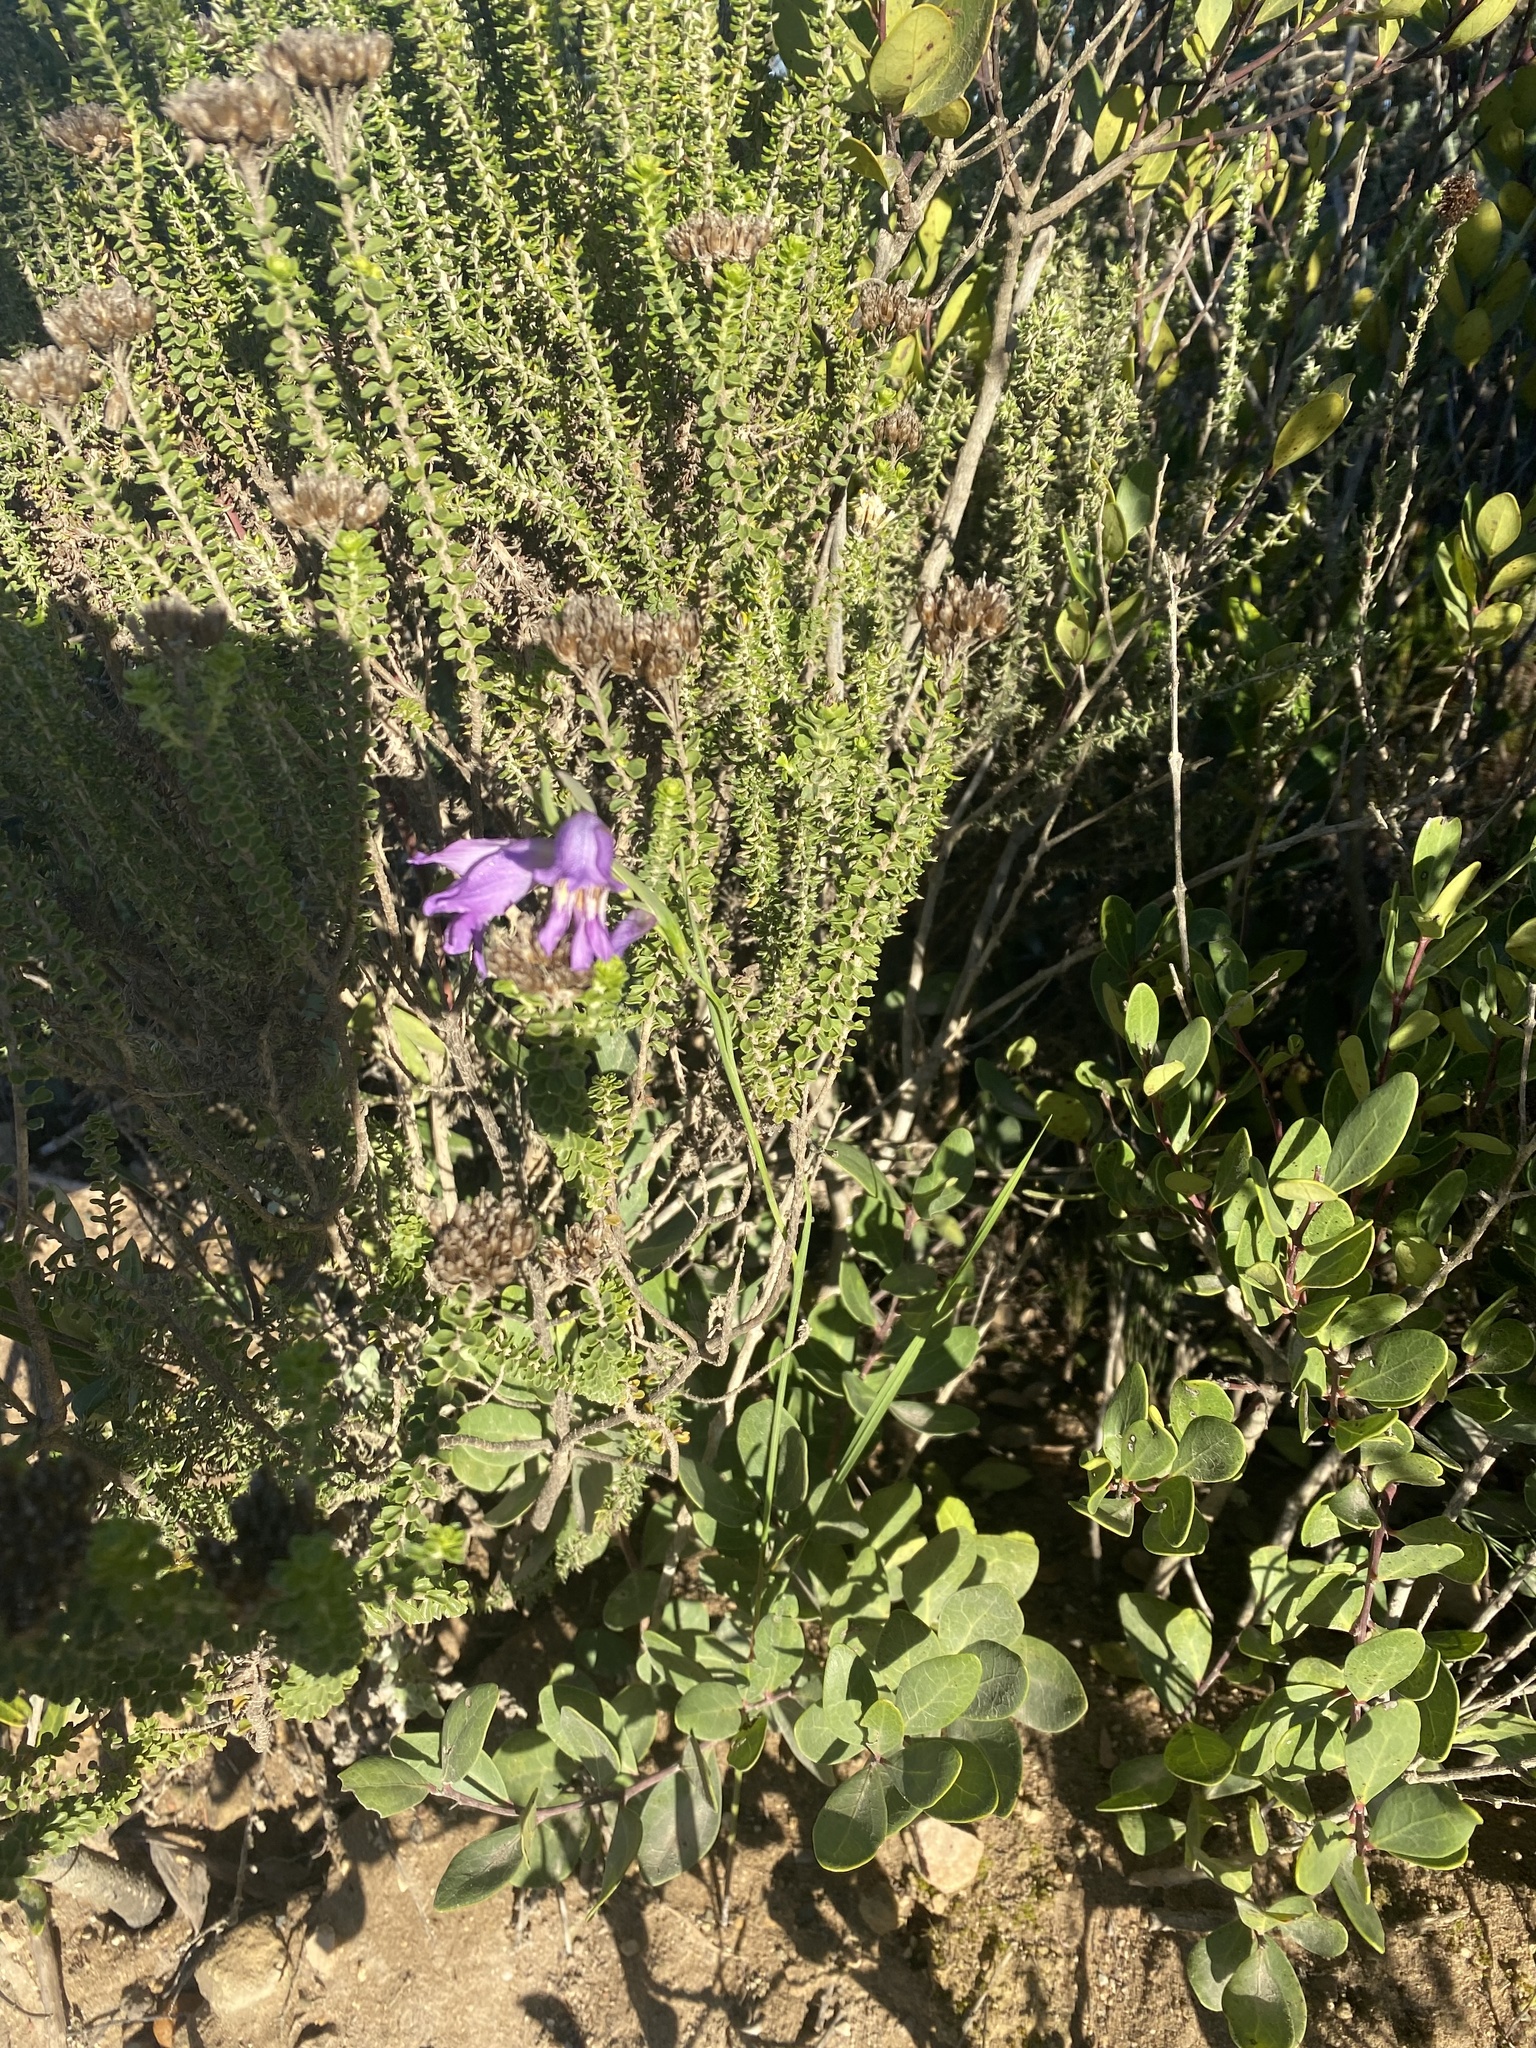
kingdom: Plantae
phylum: Tracheophyta
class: Liliopsida
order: Asparagales
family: Iridaceae
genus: Gladiolus
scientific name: Gladiolus carinatus
